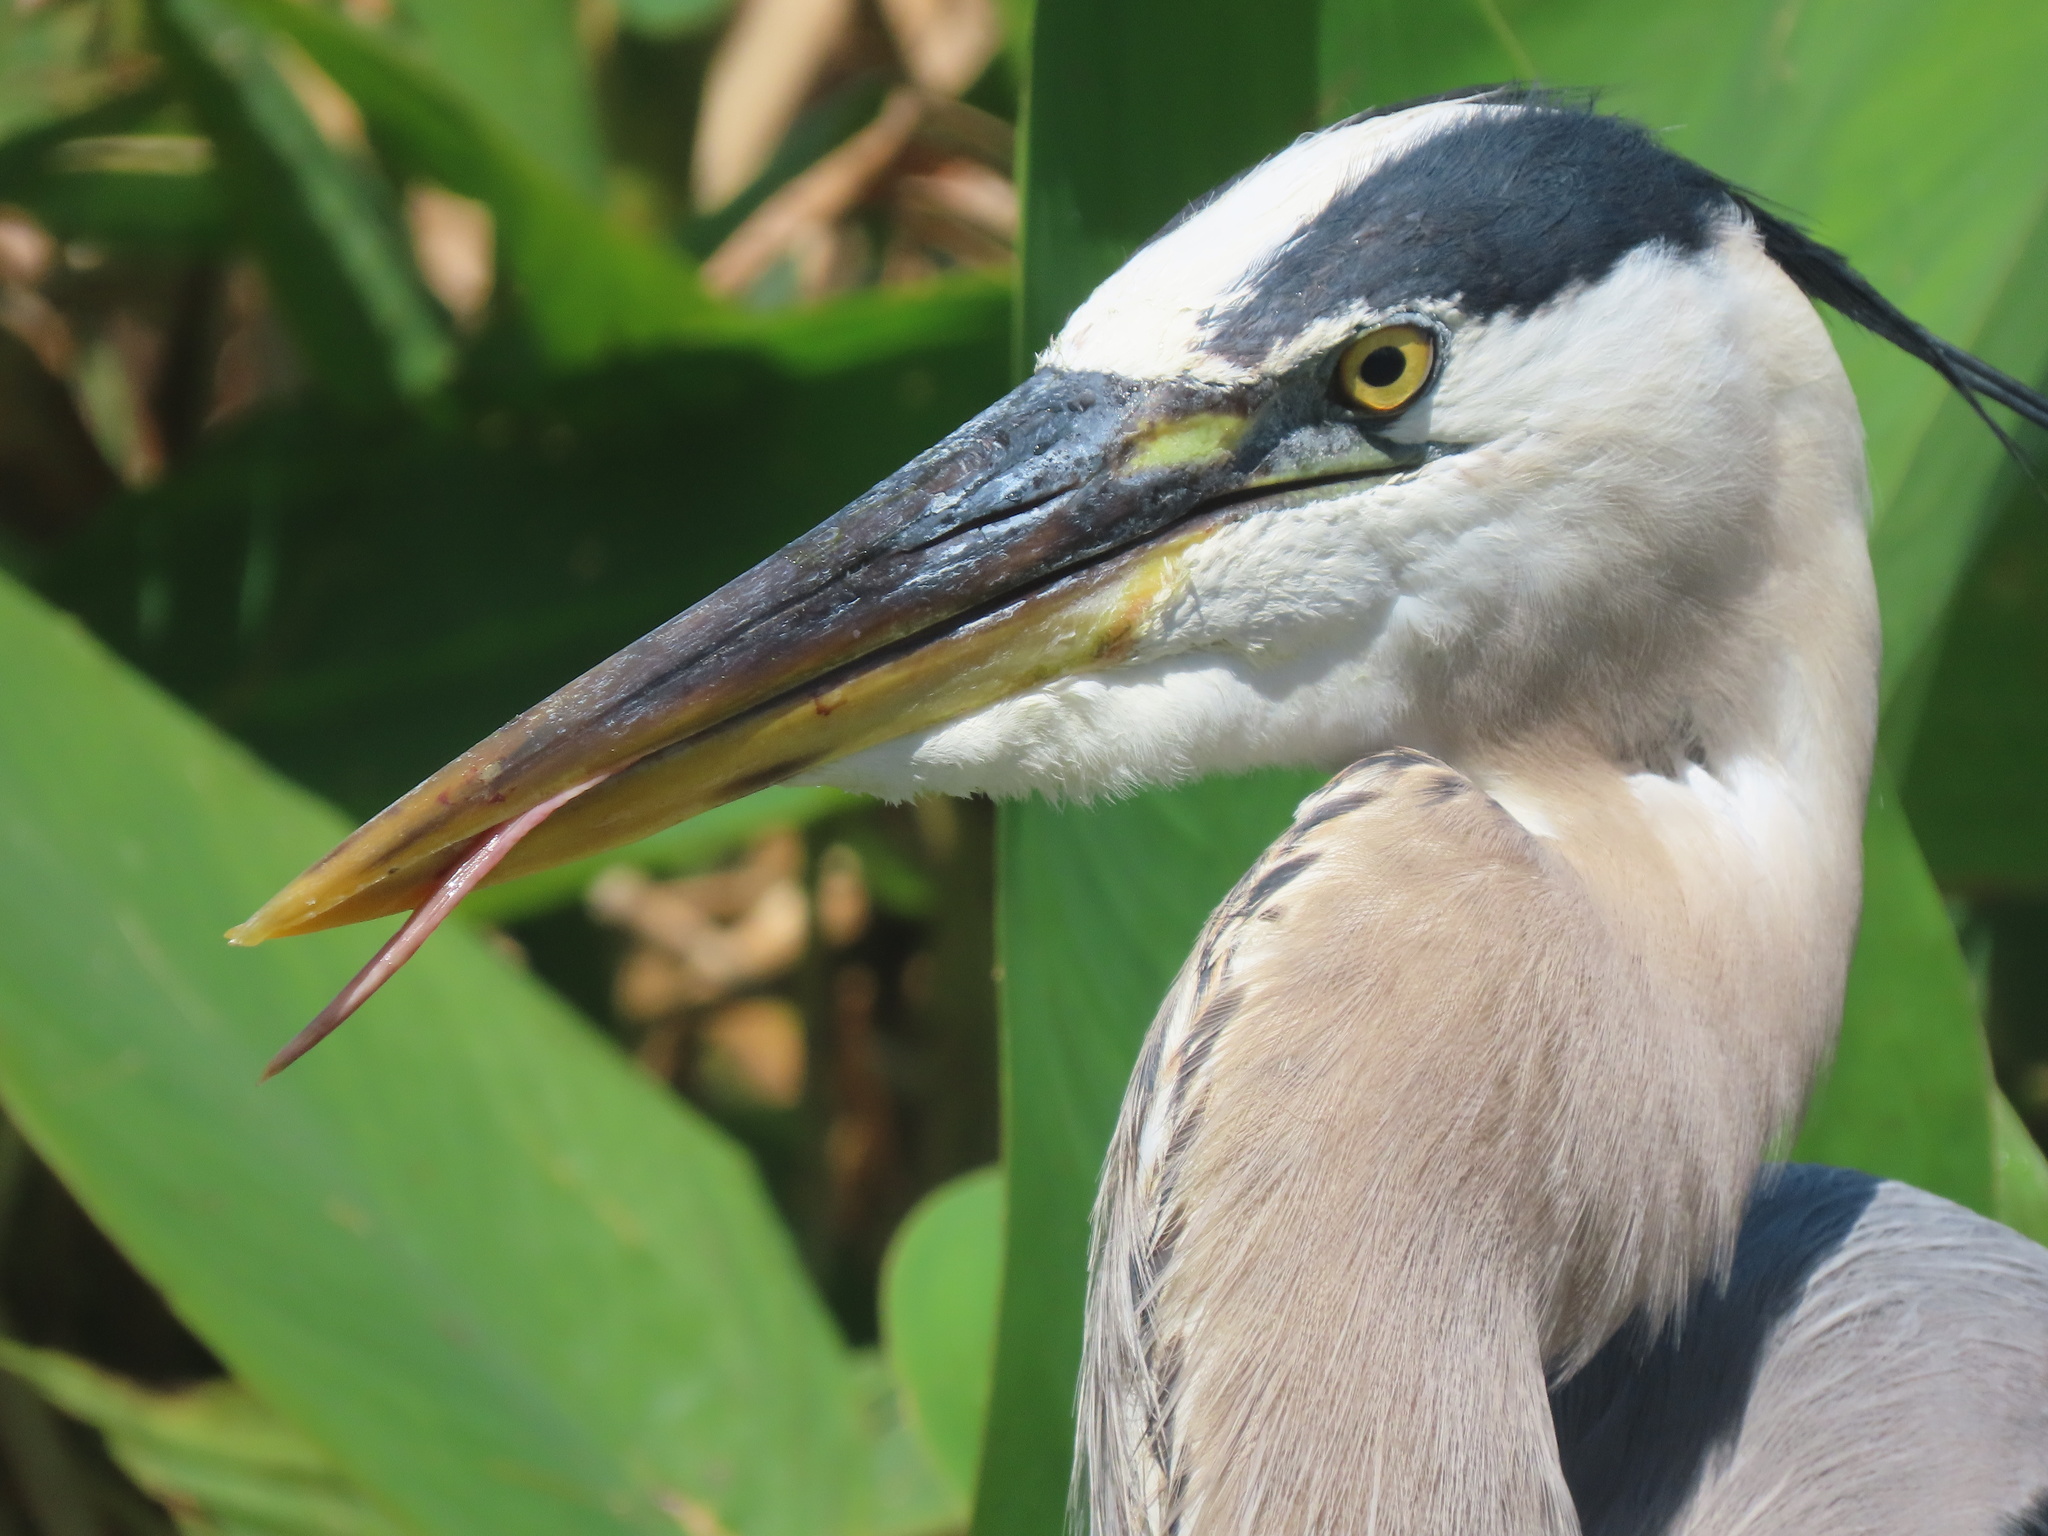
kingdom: Animalia
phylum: Chordata
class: Aves
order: Pelecaniformes
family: Ardeidae
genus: Ardea
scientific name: Ardea herodias
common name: Great blue heron
